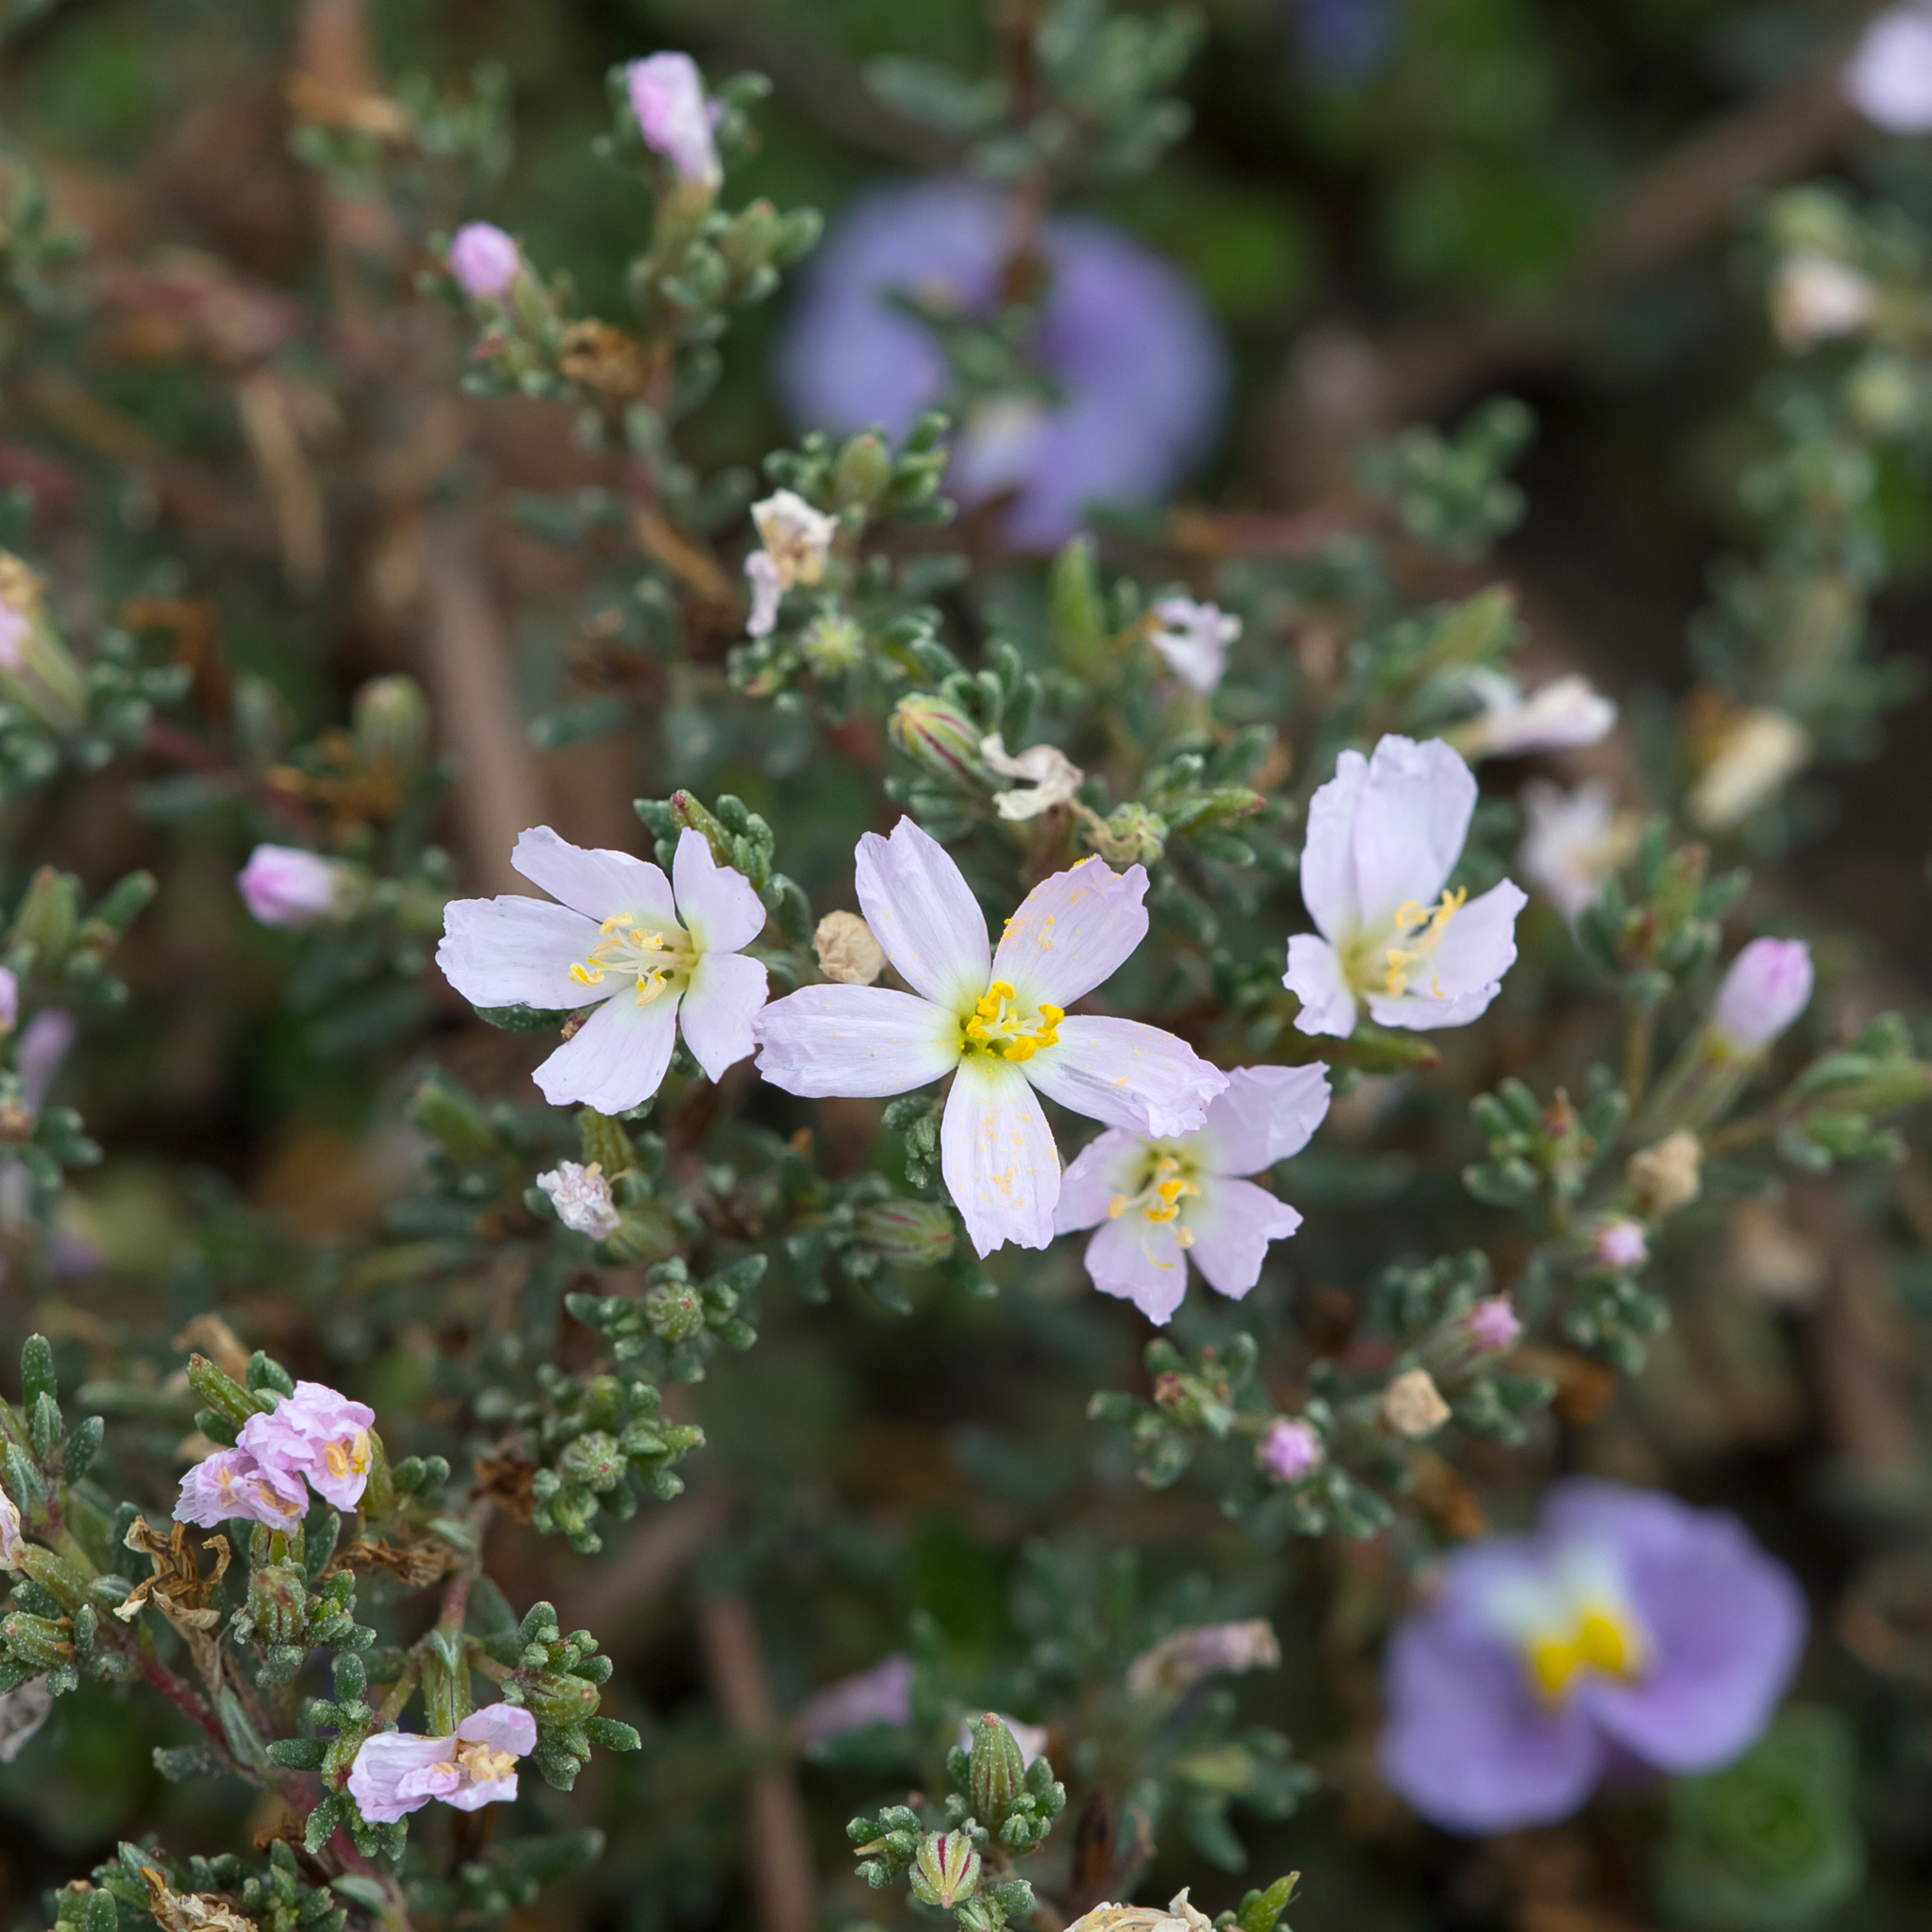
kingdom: Plantae
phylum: Tracheophyta
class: Magnoliopsida
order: Caryophyllales
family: Frankeniaceae
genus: Frankenia
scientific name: Frankenia pauciflora
